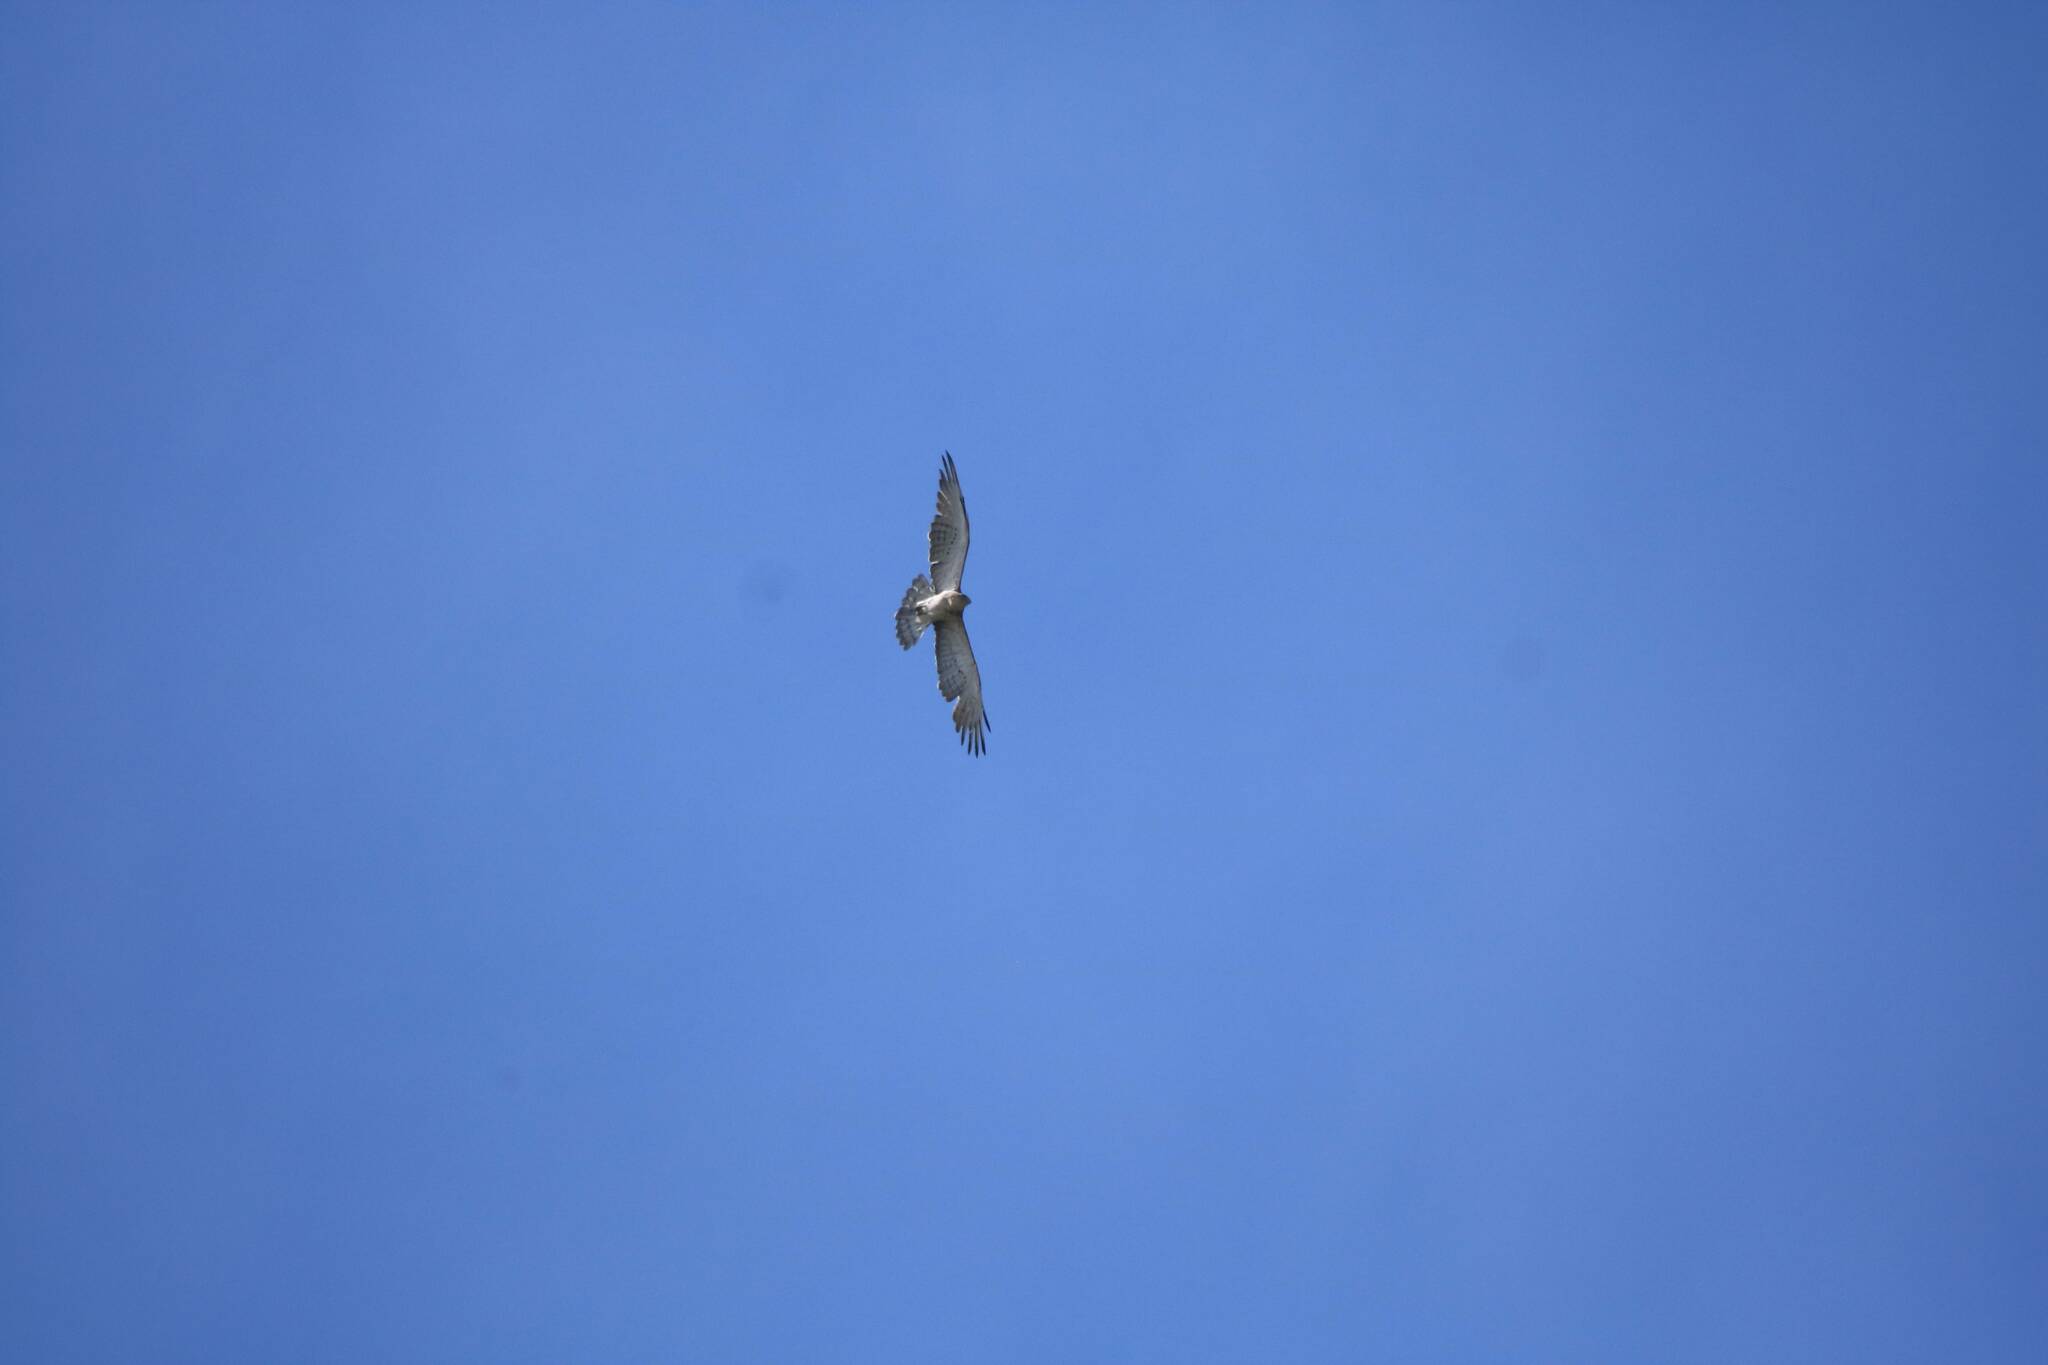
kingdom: Animalia
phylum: Chordata
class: Aves
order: Accipitriformes
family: Accipitridae
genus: Circaetus
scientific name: Circaetus gallicus
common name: Short-toed snake eagle
